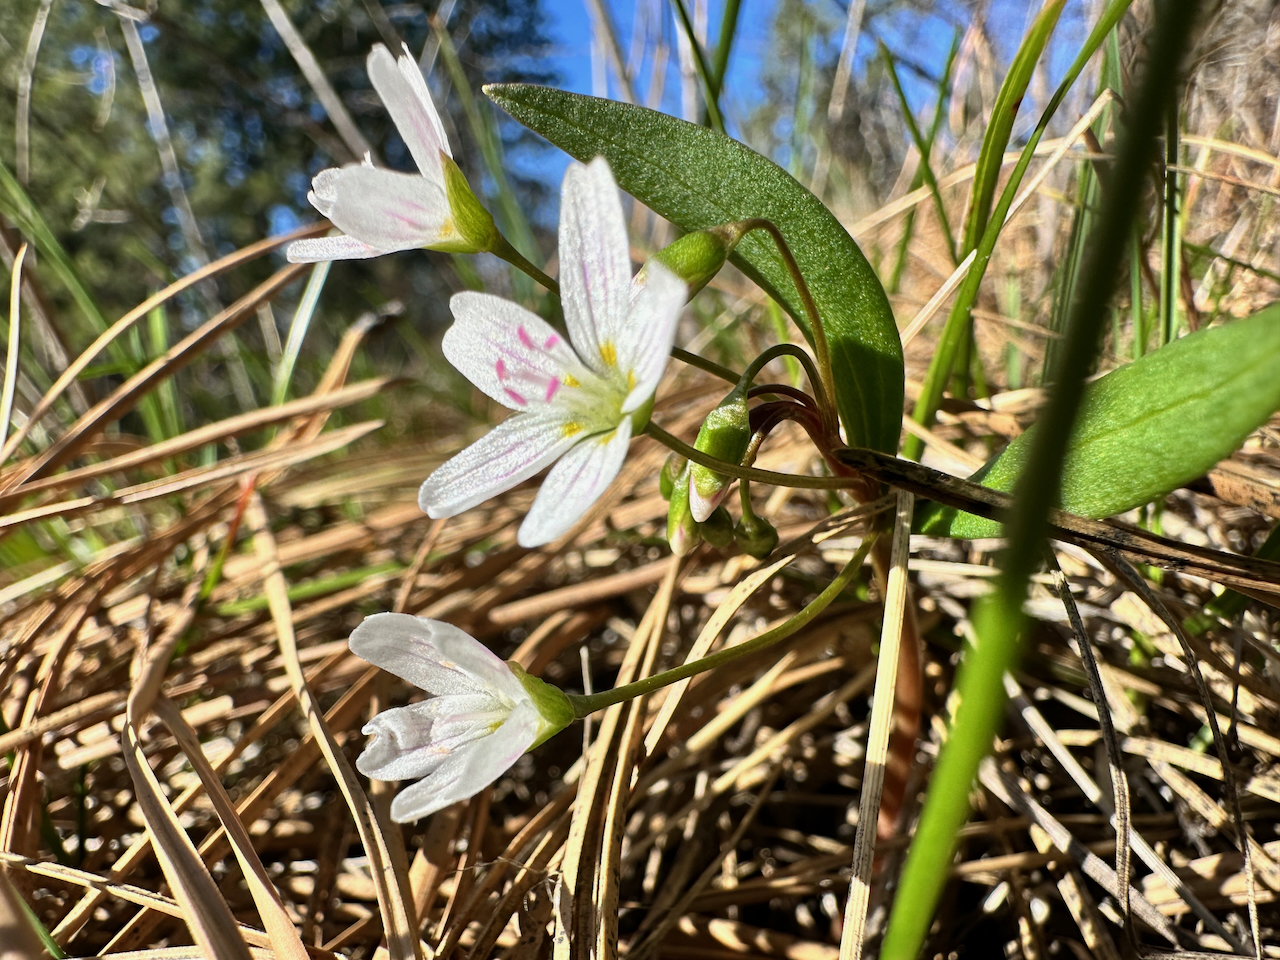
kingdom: Plantae
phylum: Tracheophyta
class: Magnoliopsida
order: Caryophyllales
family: Montiaceae
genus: Claytonia
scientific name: Claytonia lanceolata
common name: Western spring-beauty
